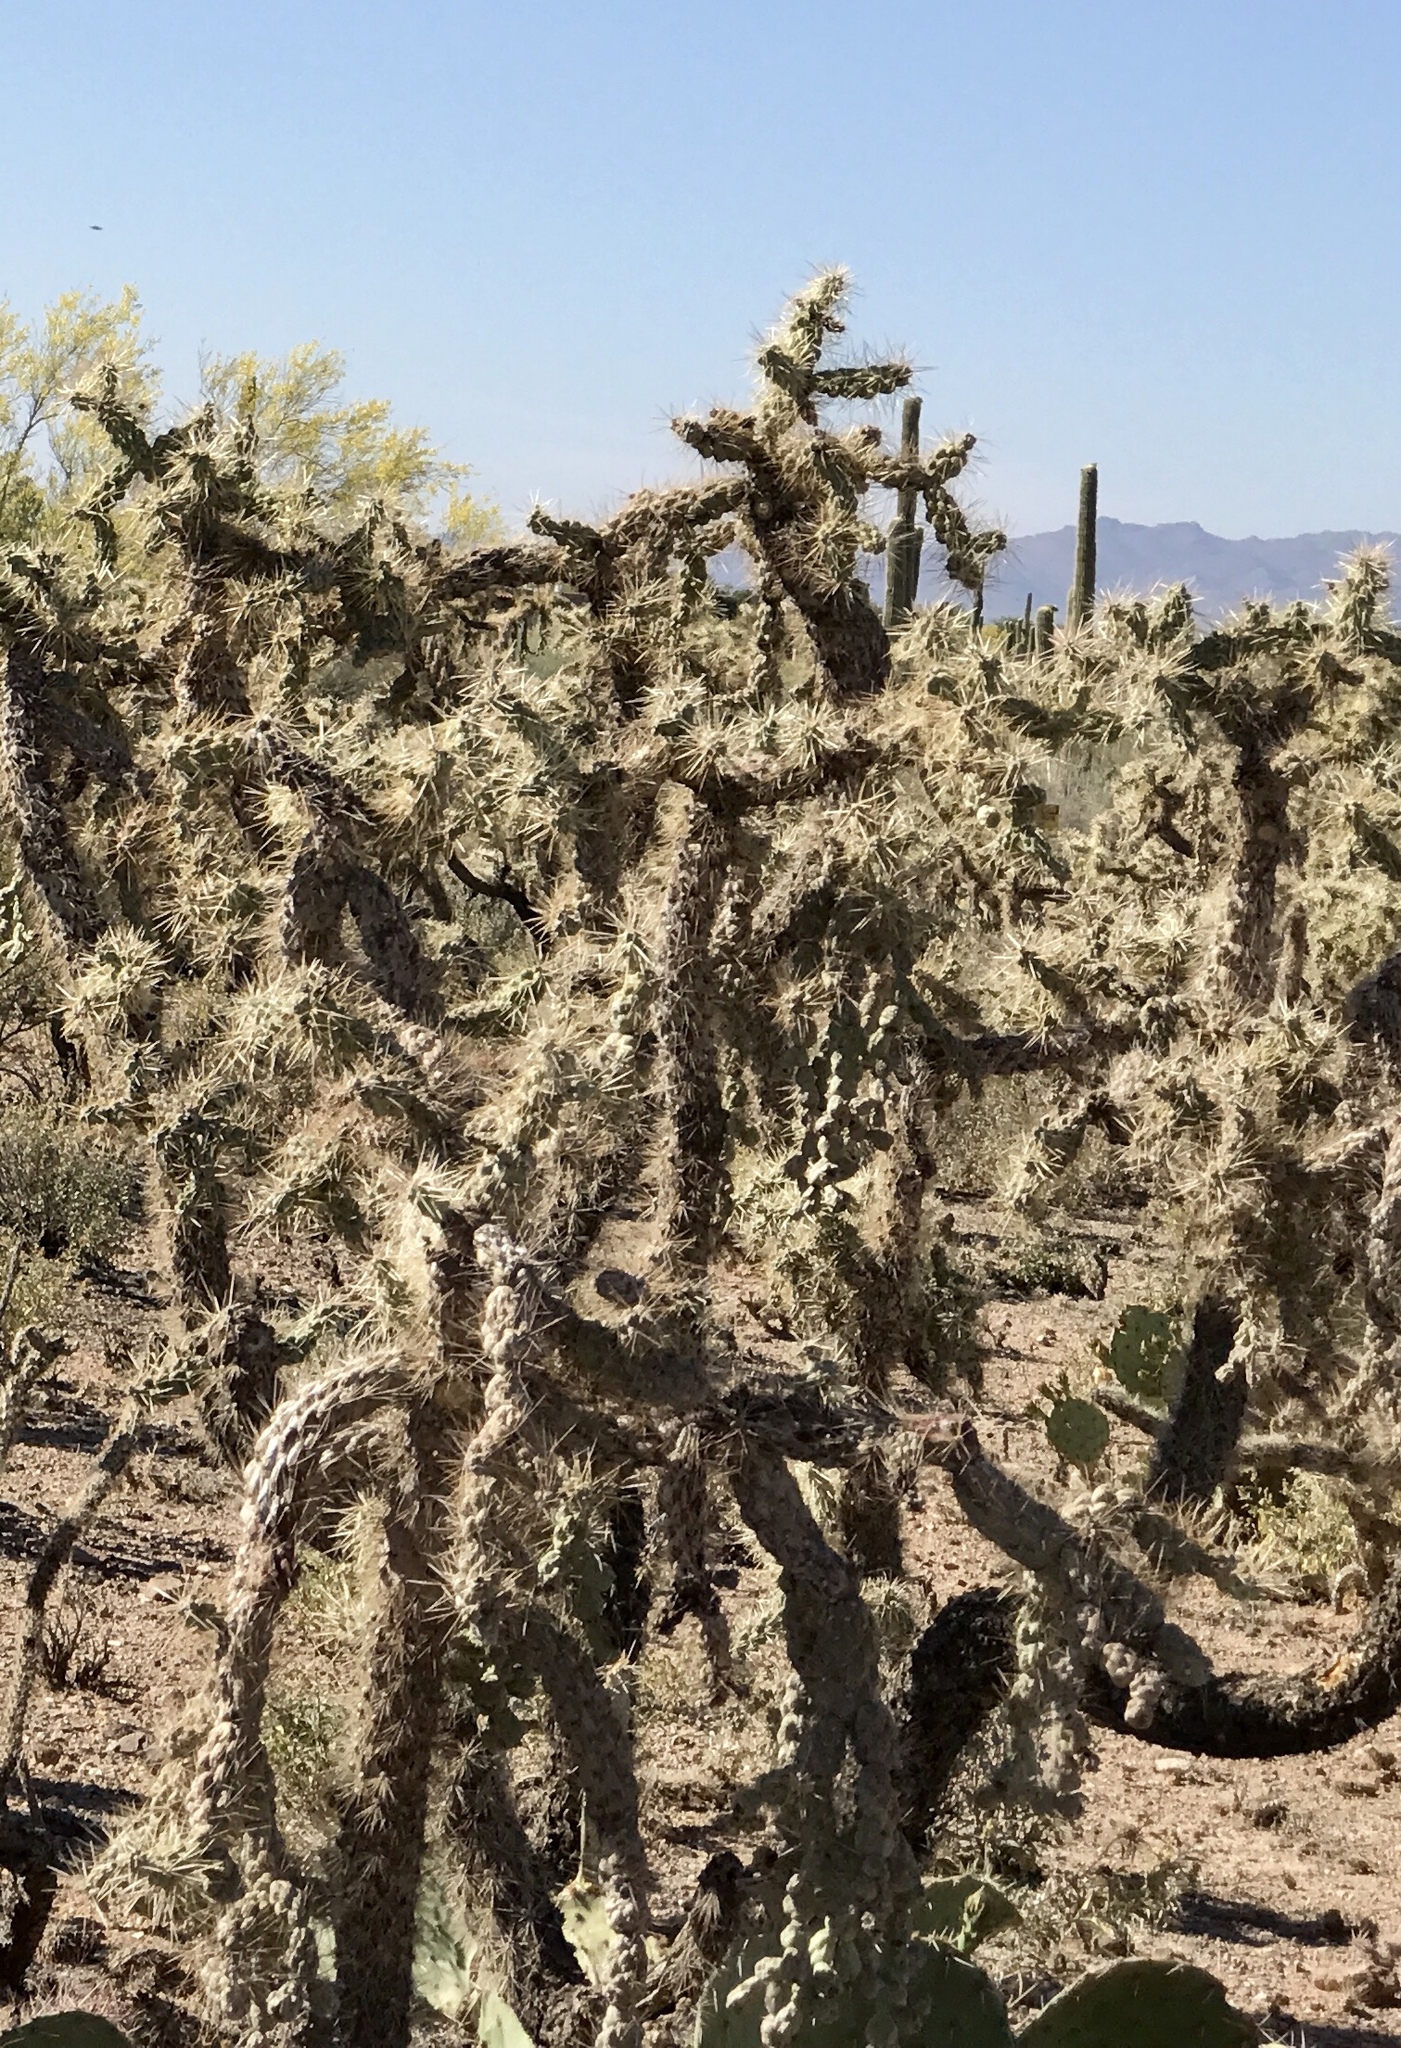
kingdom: Plantae
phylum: Tracheophyta
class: Magnoliopsida
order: Caryophyllales
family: Cactaceae
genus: Cylindropuntia
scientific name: Cylindropuntia fulgida
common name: Jumping cholla
